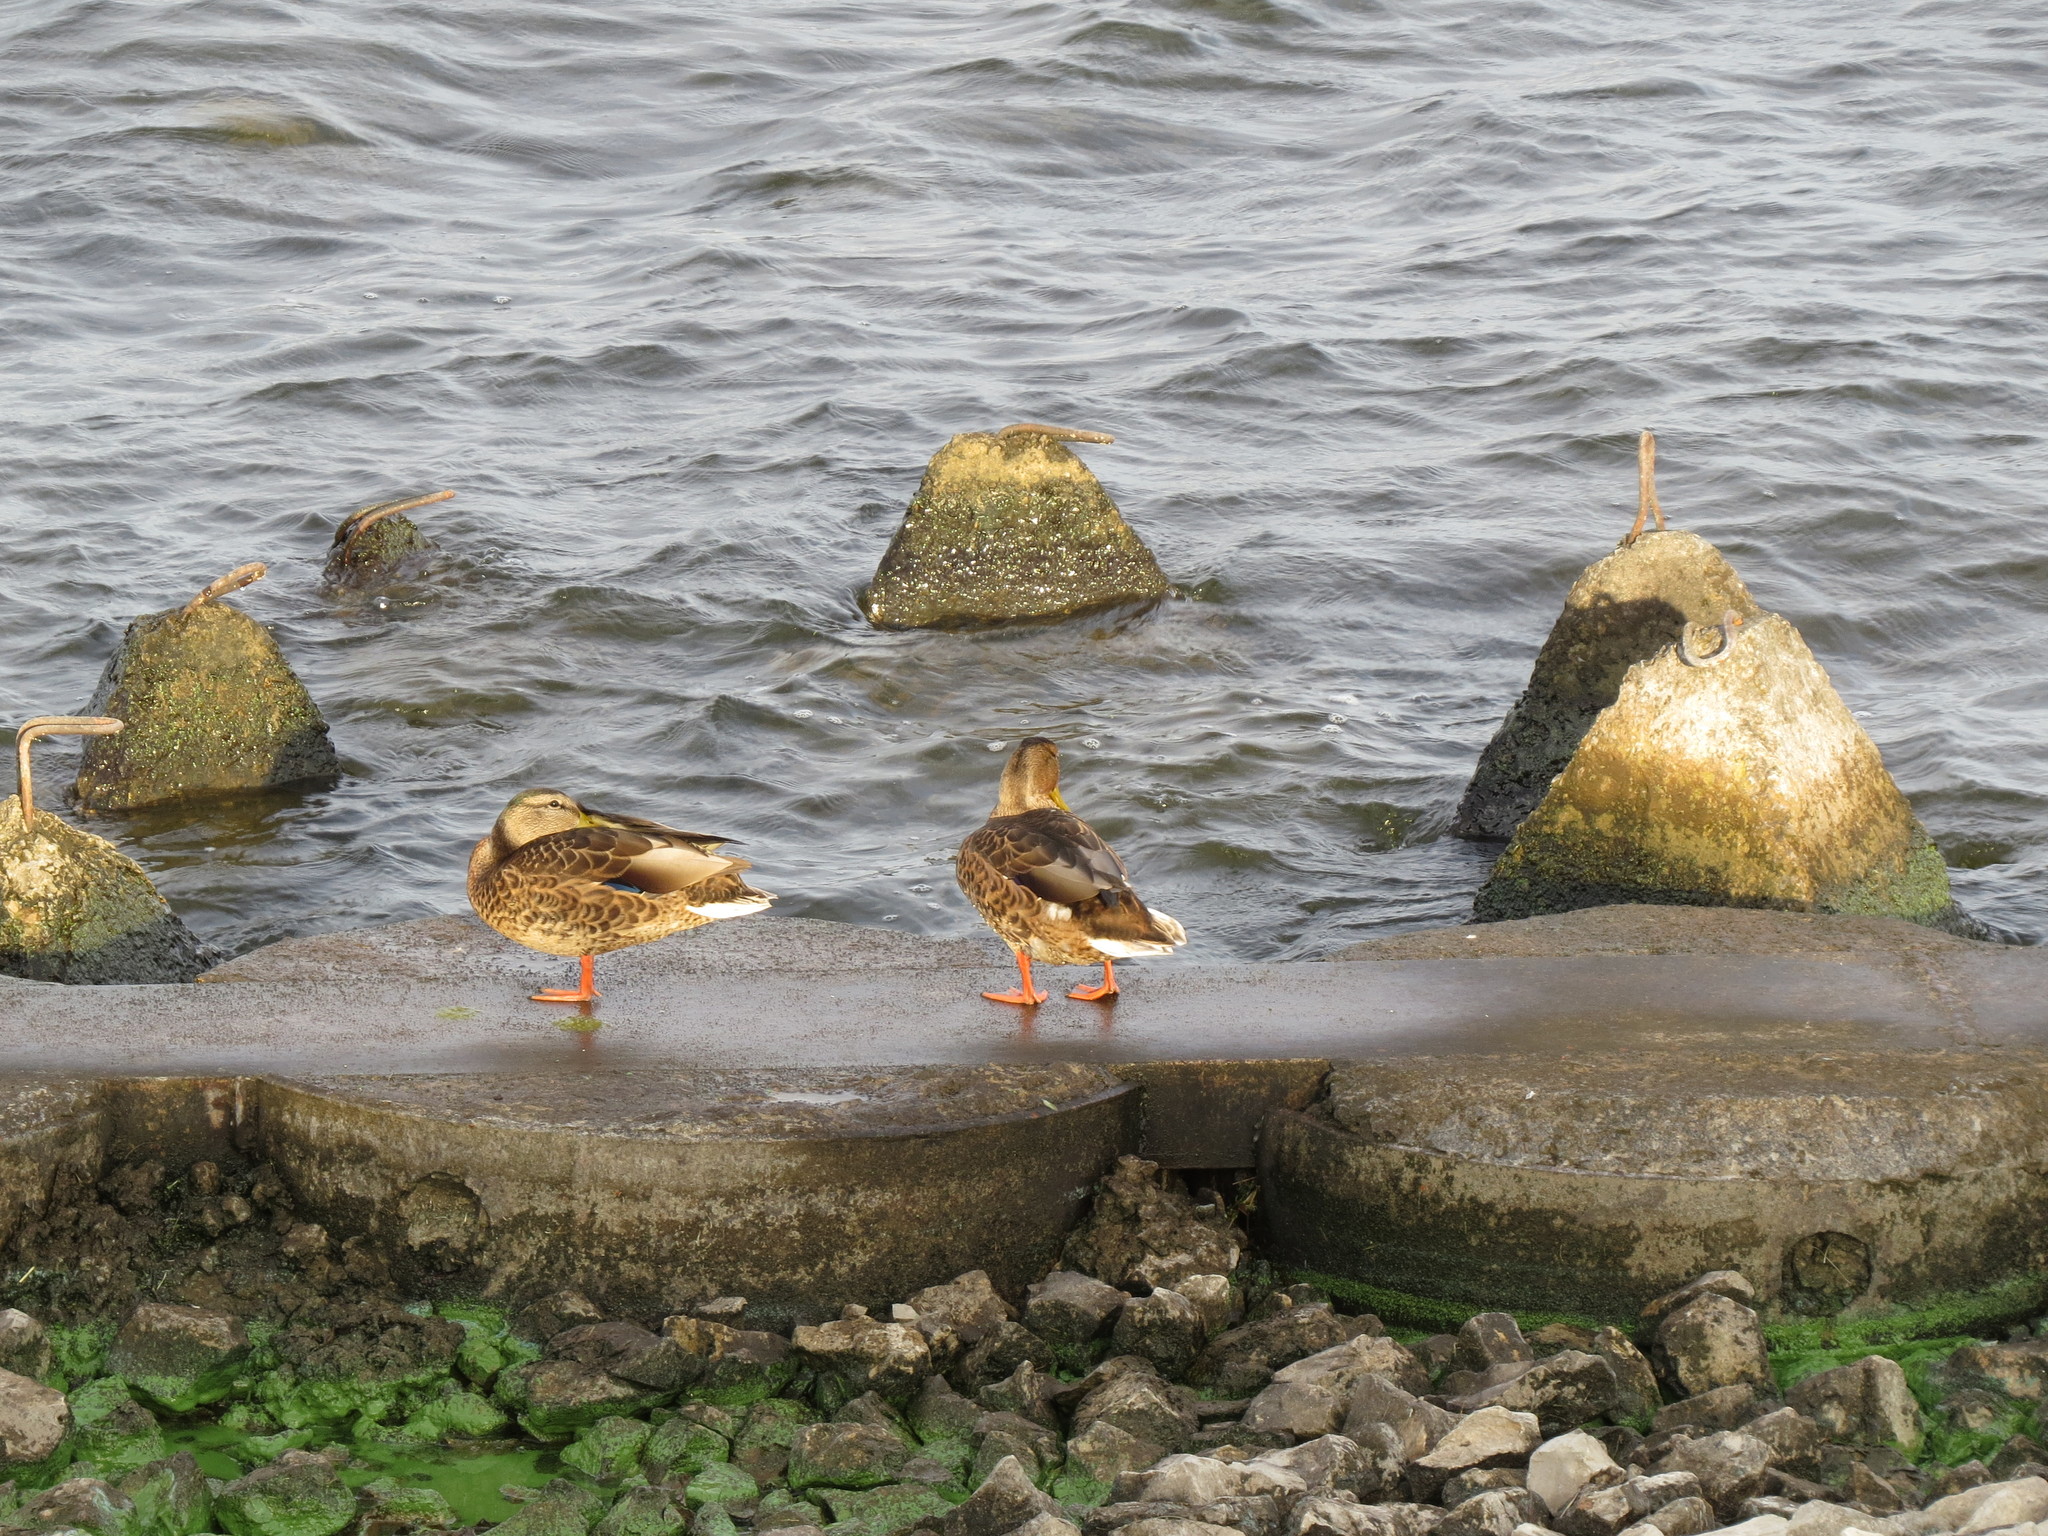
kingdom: Animalia
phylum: Chordata
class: Aves
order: Anseriformes
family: Anatidae
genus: Anas
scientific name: Anas platyrhynchos
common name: Mallard
